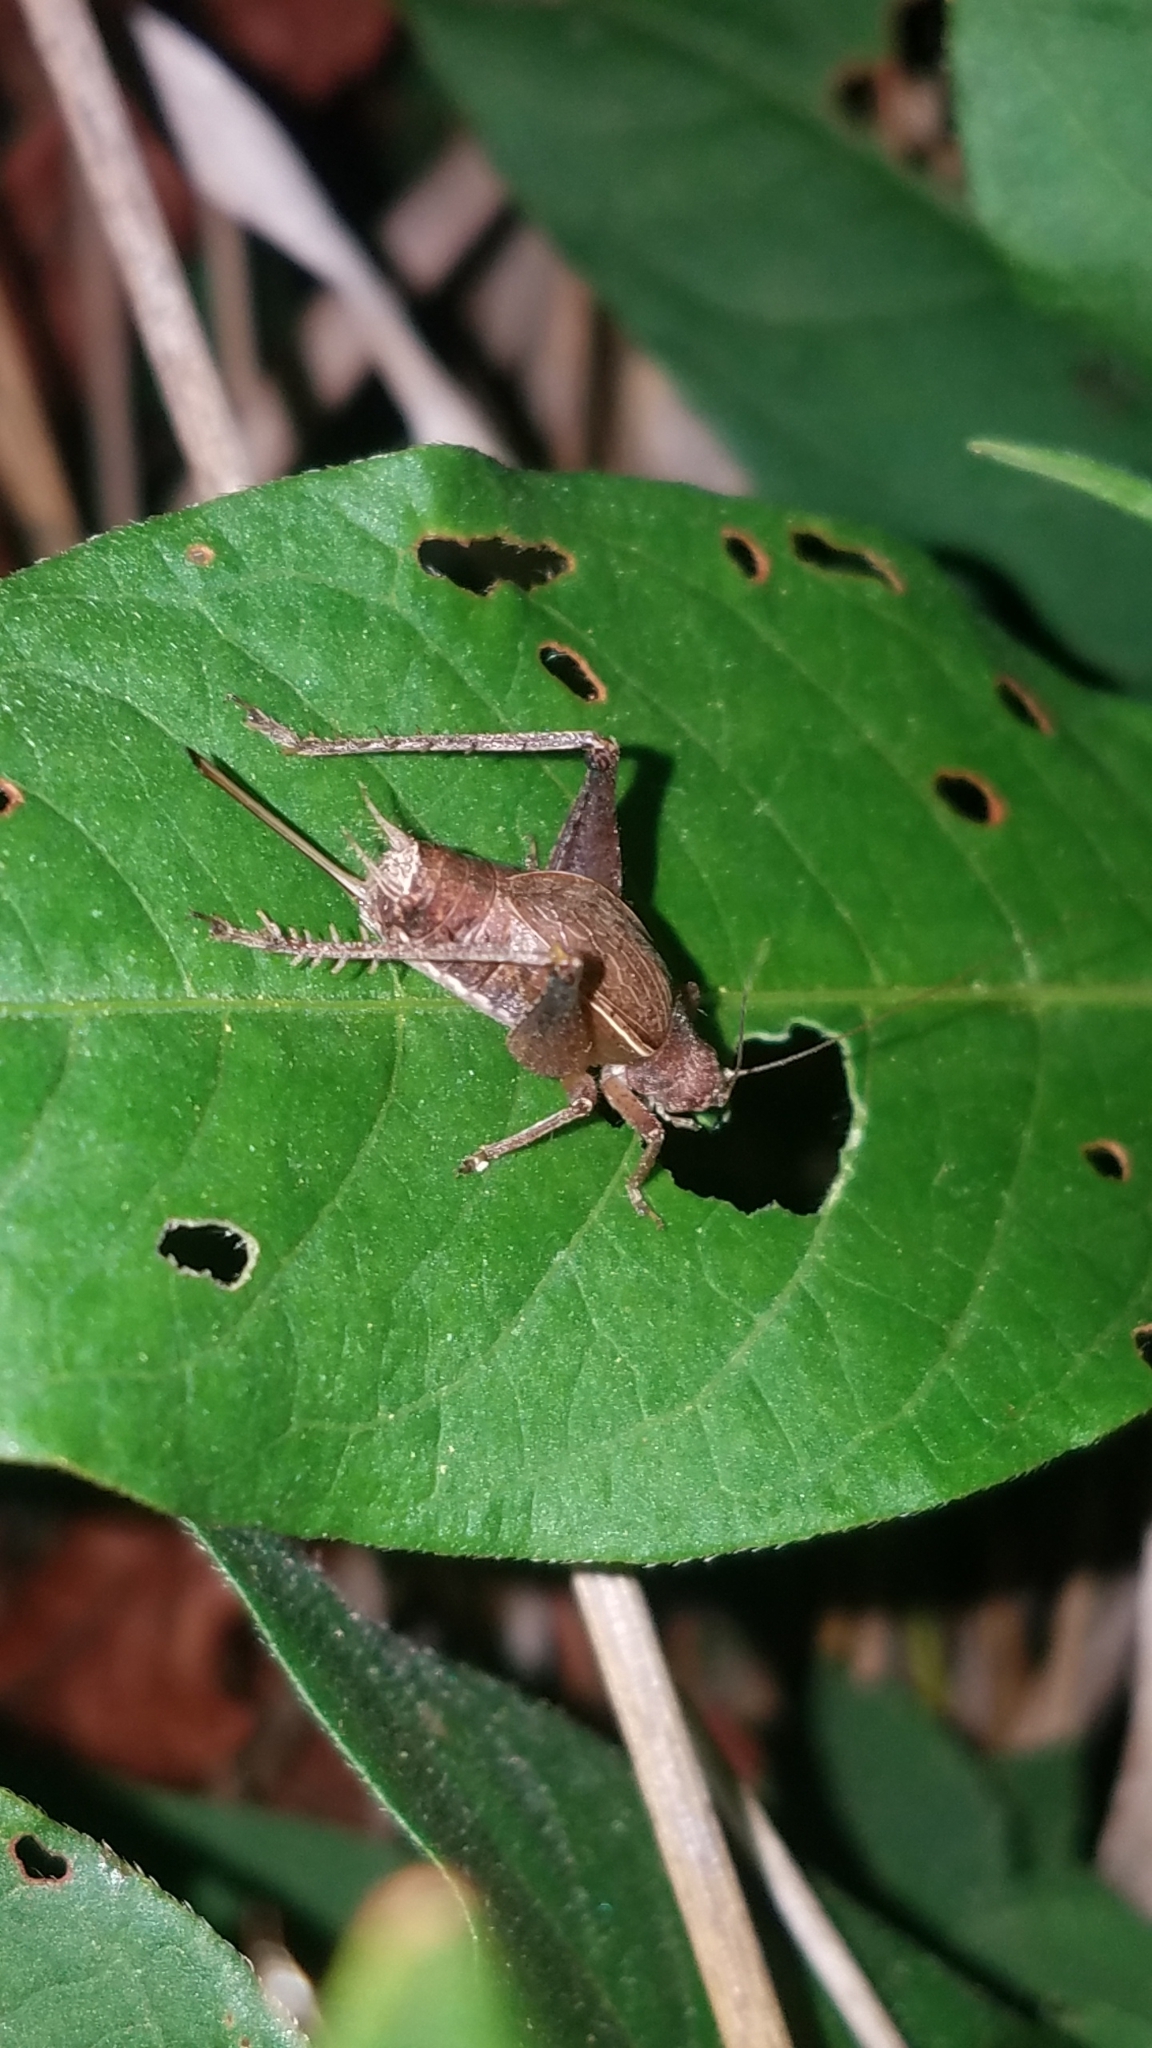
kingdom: Animalia
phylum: Arthropoda
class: Insecta
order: Orthoptera
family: Gryllidae
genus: Hapithus
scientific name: Hapithus agitator
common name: Restless bush cricket
